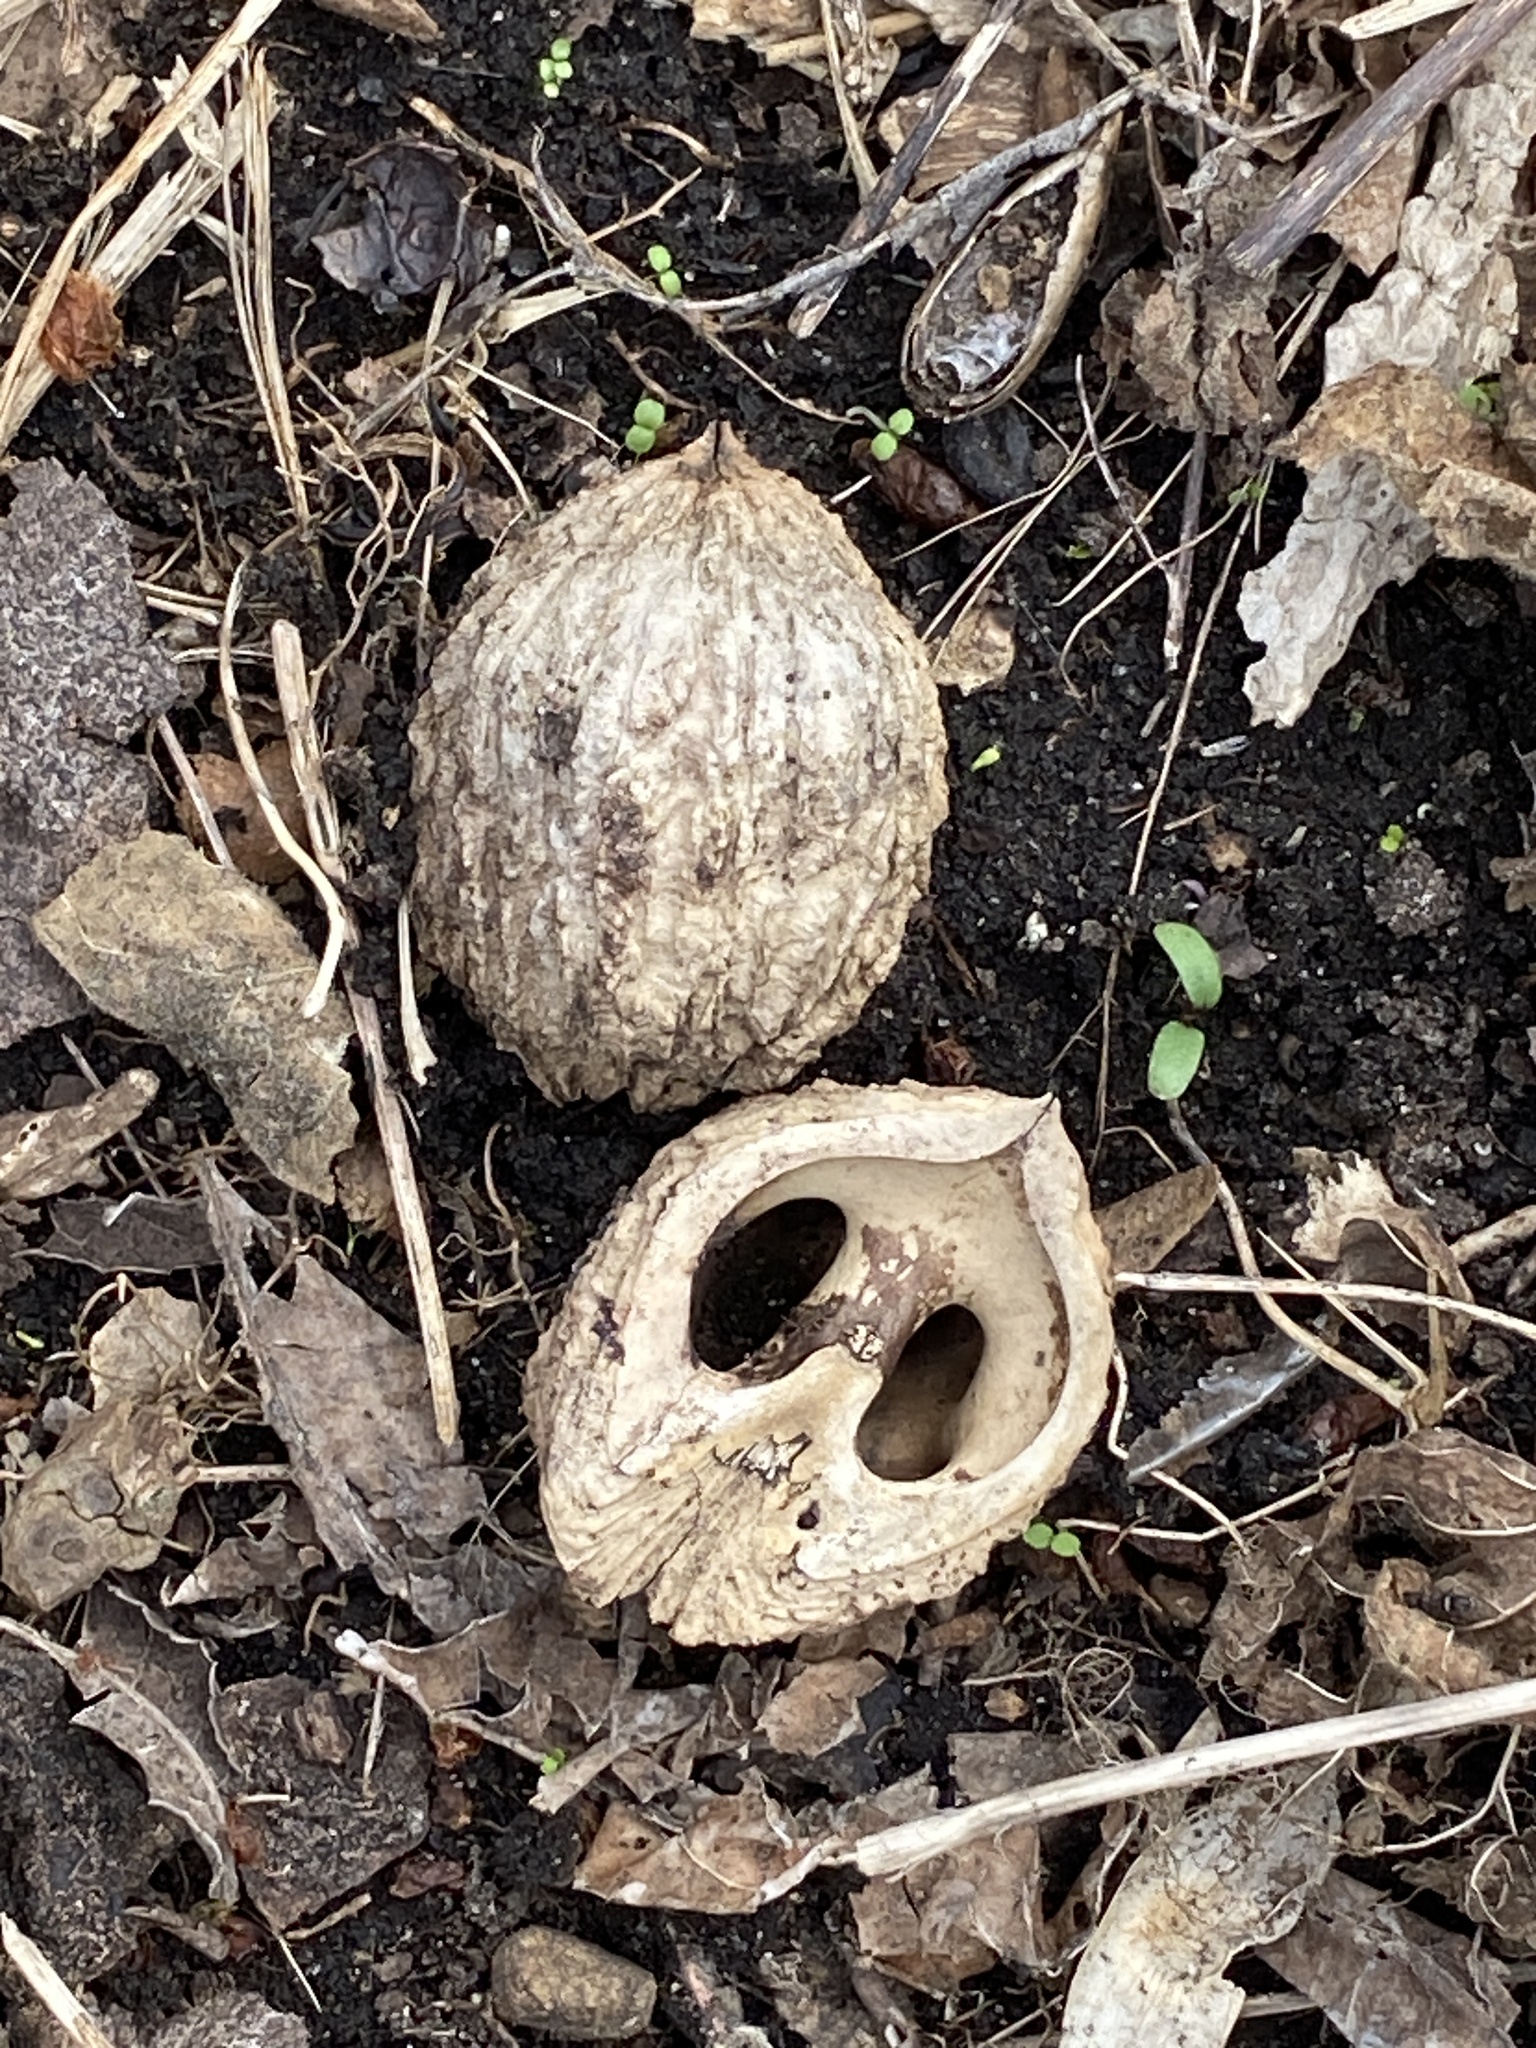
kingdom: Plantae
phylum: Tracheophyta
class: Magnoliopsida
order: Fagales
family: Juglandaceae
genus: Juglans
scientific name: Juglans nigra
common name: Black walnut
